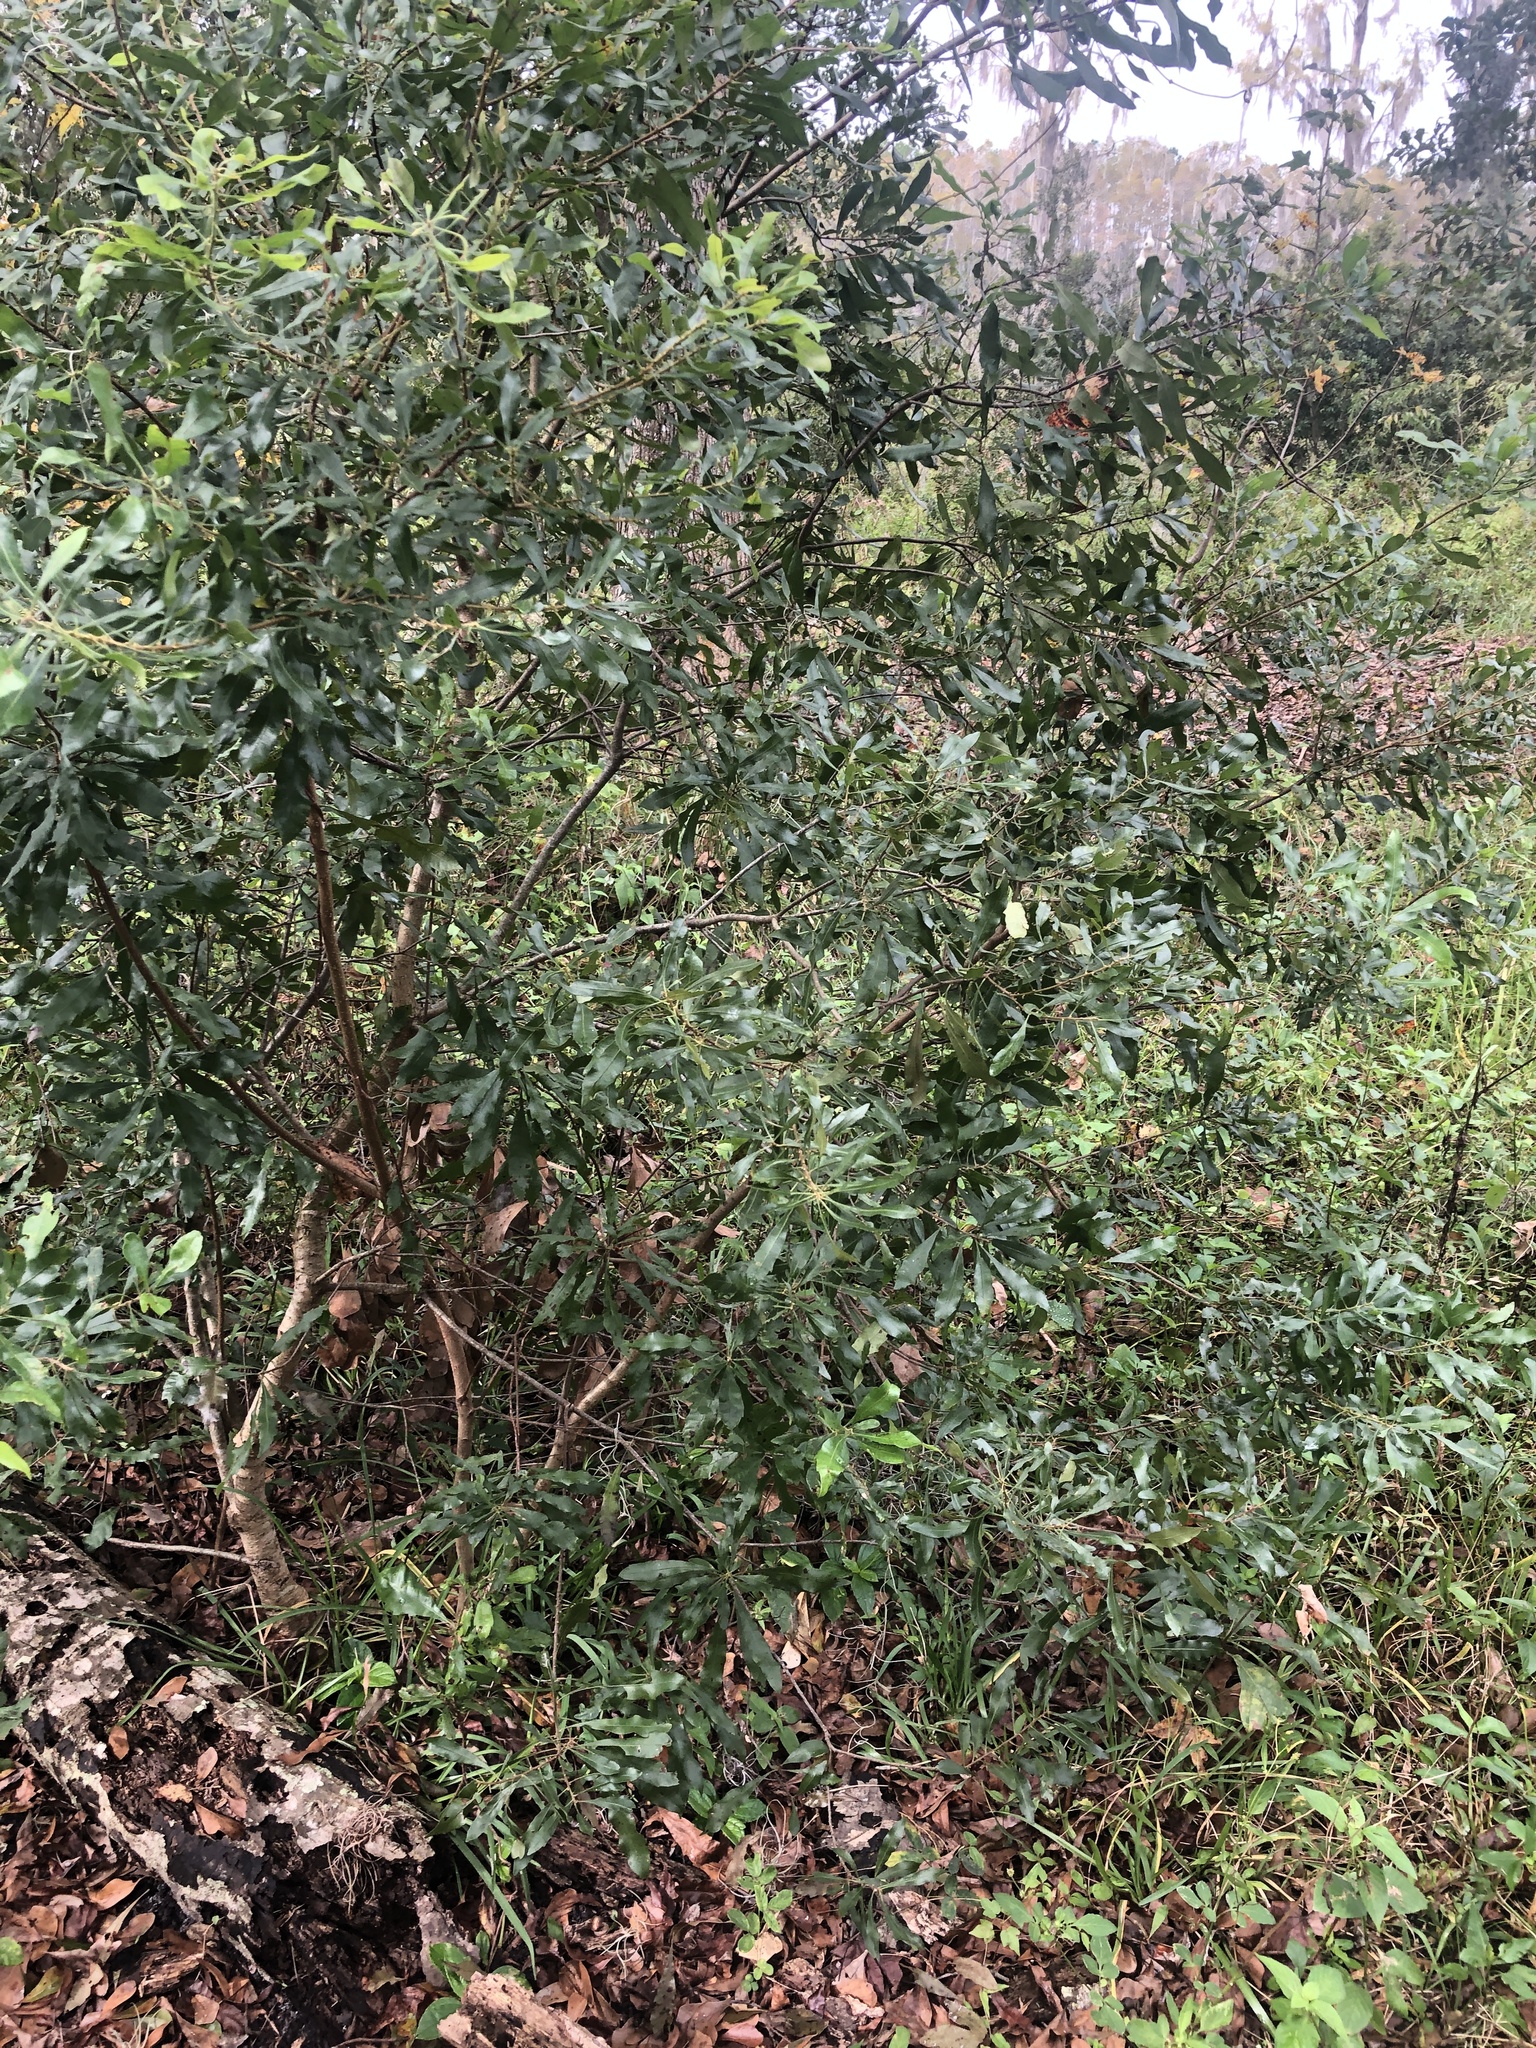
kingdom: Plantae
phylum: Tracheophyta
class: Magnoliopsida
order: Fagales
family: Myricaceae
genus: Morella
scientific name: Morella cerifera
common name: Wax myrtle
